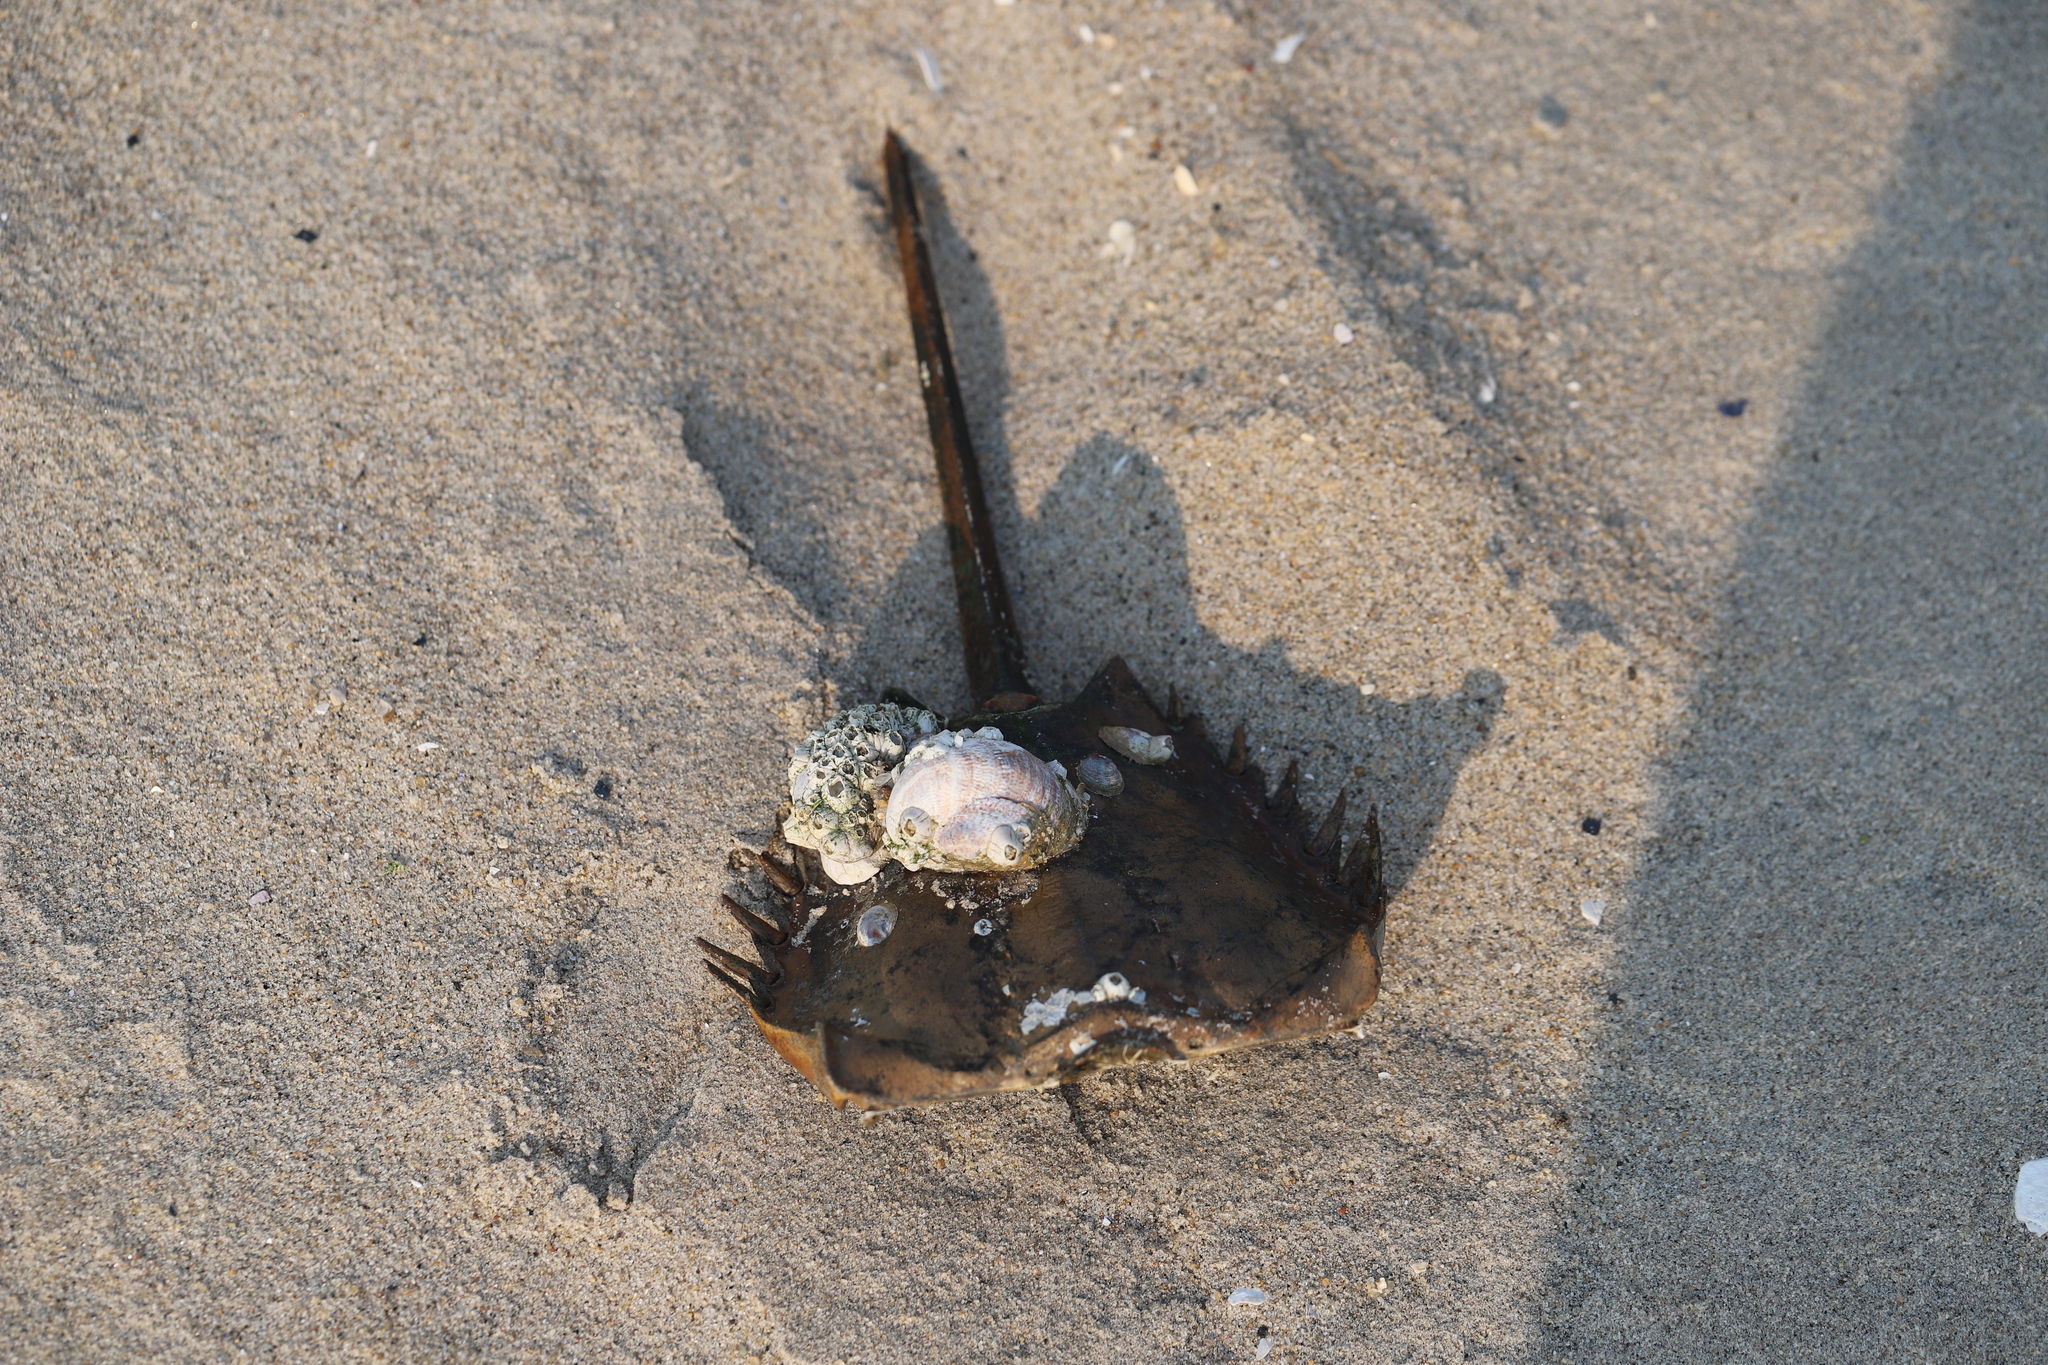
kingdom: Animalia
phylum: Mollusca
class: Gastropoda
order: Littorinimorpha
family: Calyptraeidae
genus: Crepidula
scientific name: Crepidula fornicata
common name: Slipper limpet
